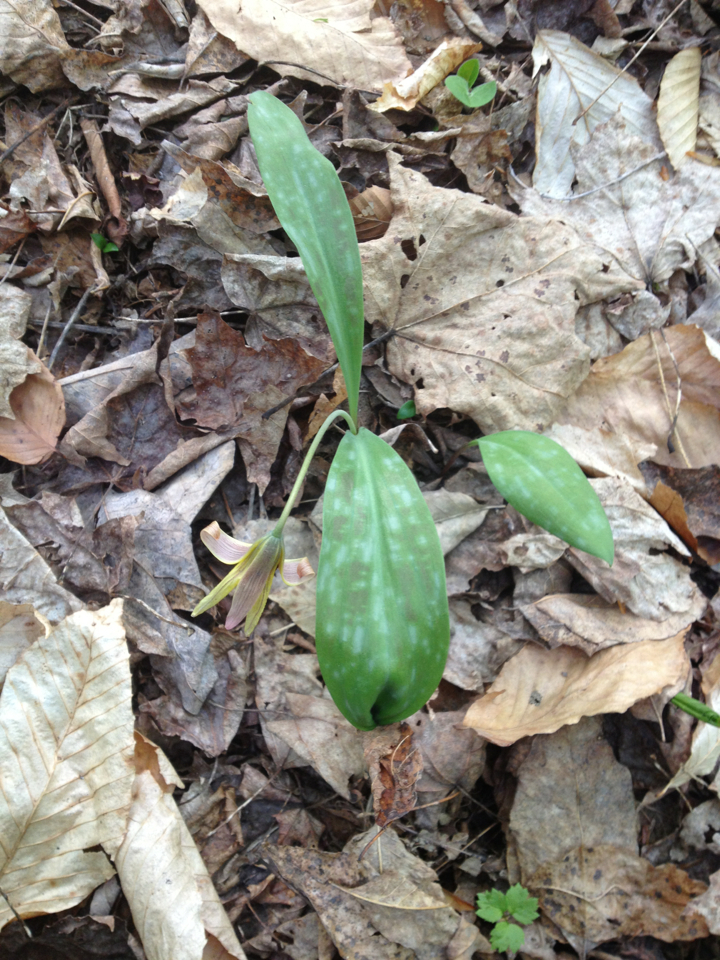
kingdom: Plantae
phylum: Tracheophyta
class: Liliopsida
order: Liliales
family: Liliaceae
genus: Erythronium
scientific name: Erythronium americanum
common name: Yellow adder's-tongue
